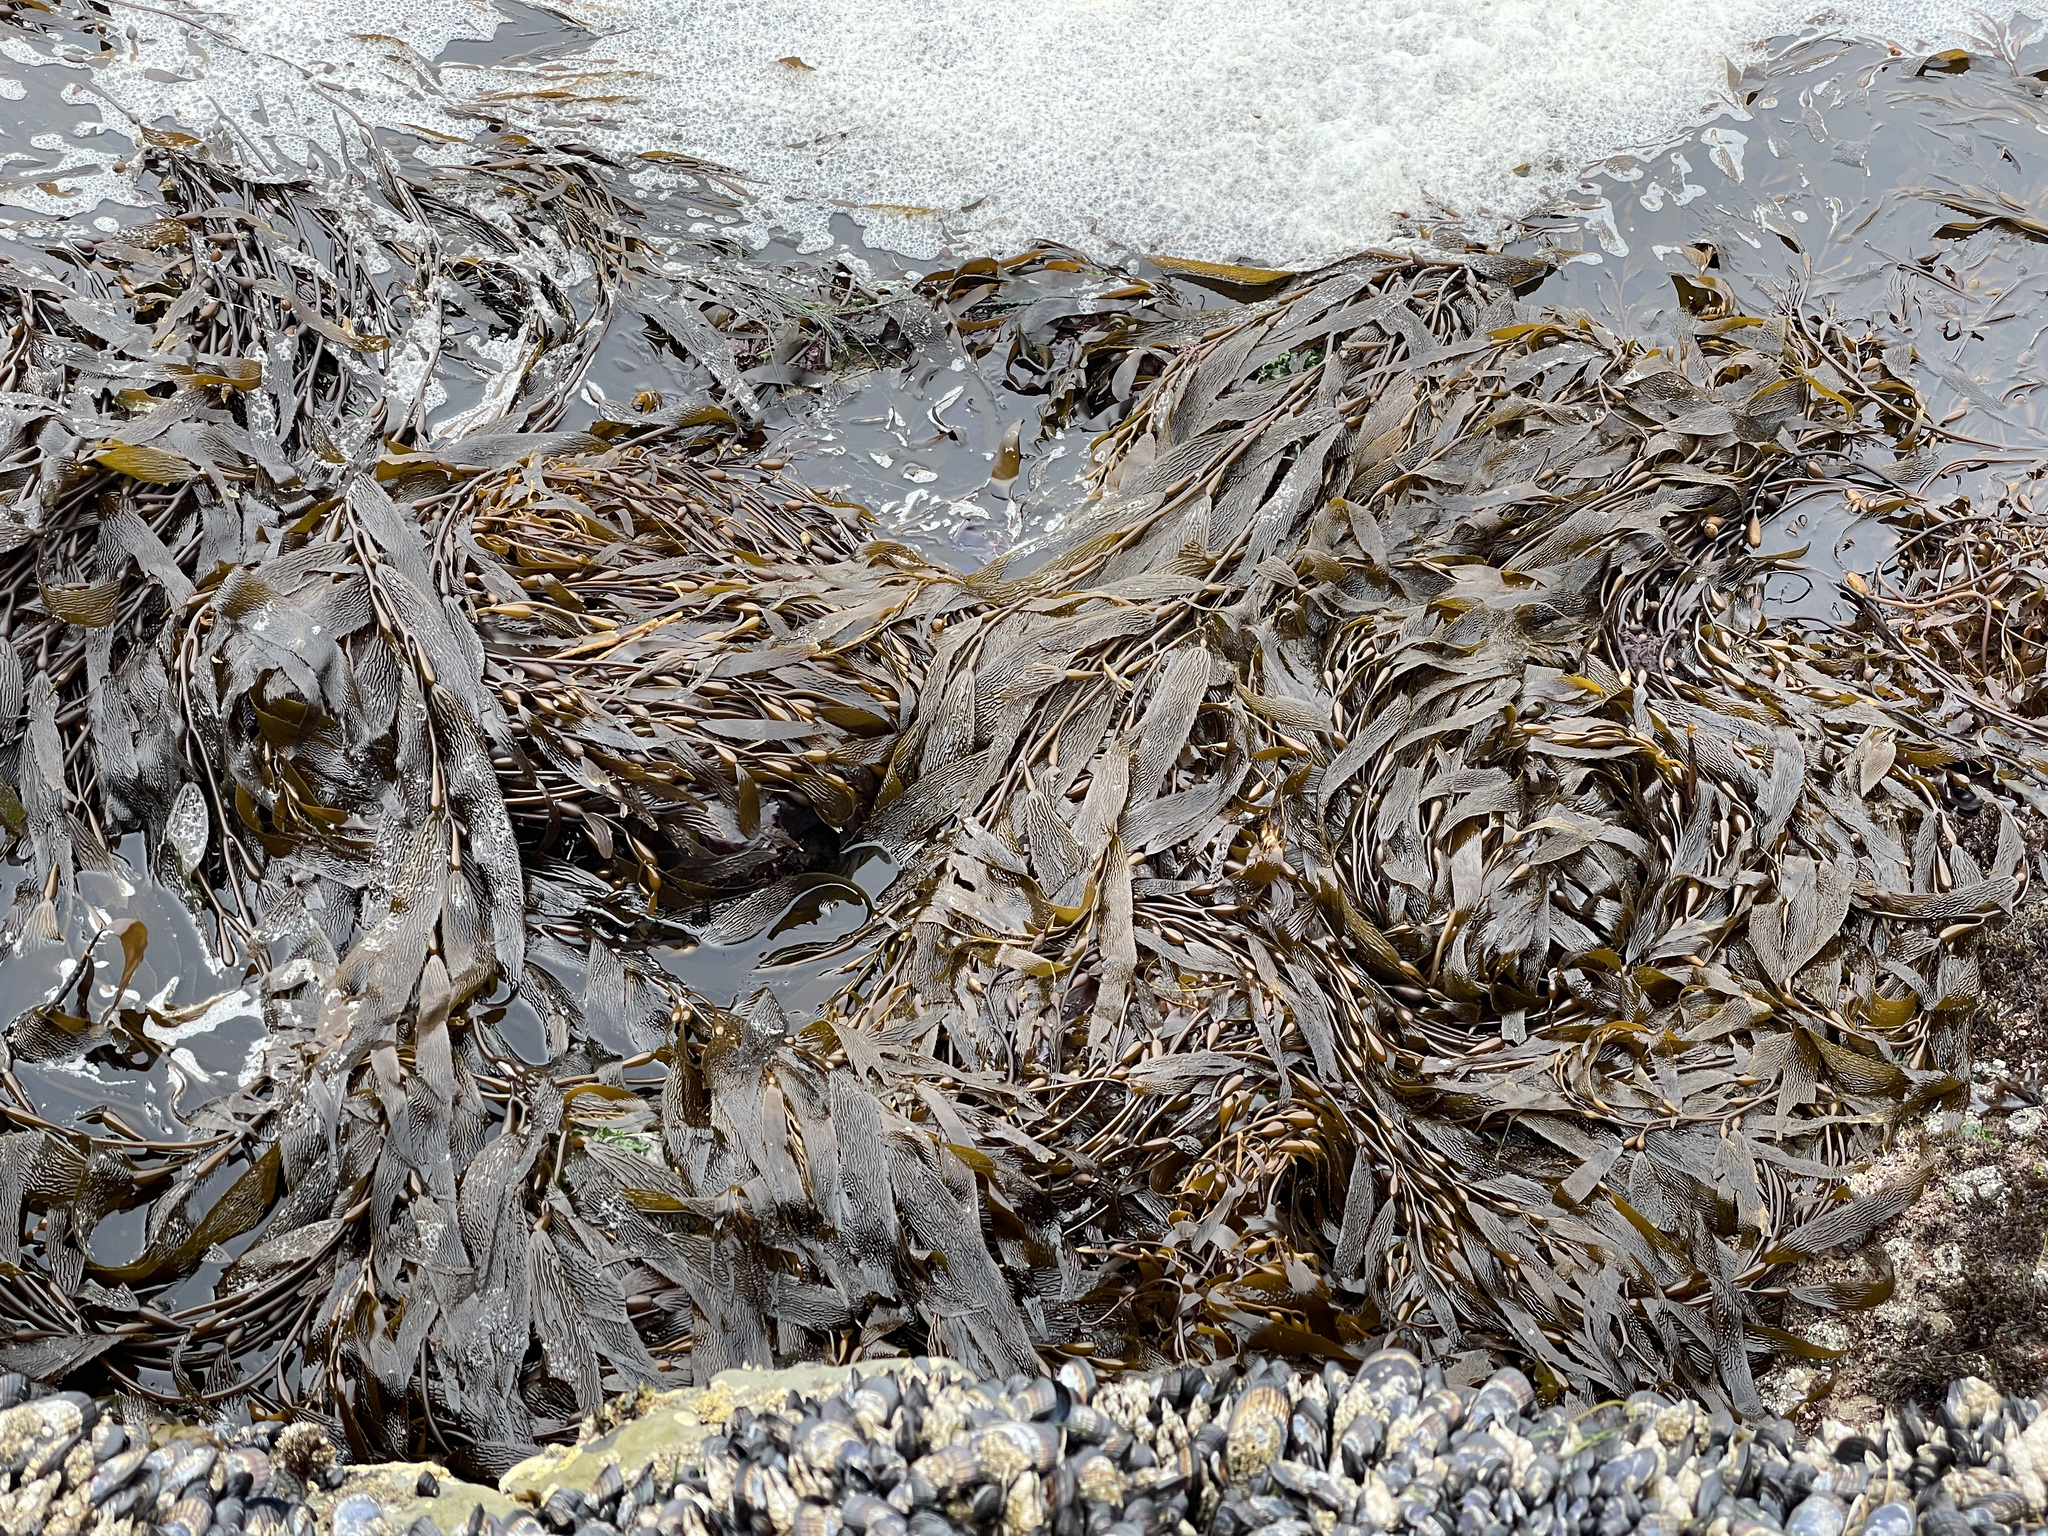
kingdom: Chromista
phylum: Ochrophyta
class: Phaeophyceae
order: Laminariales
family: Laminariaceae
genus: Macrocystis
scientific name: Macrocystis pyrifera
